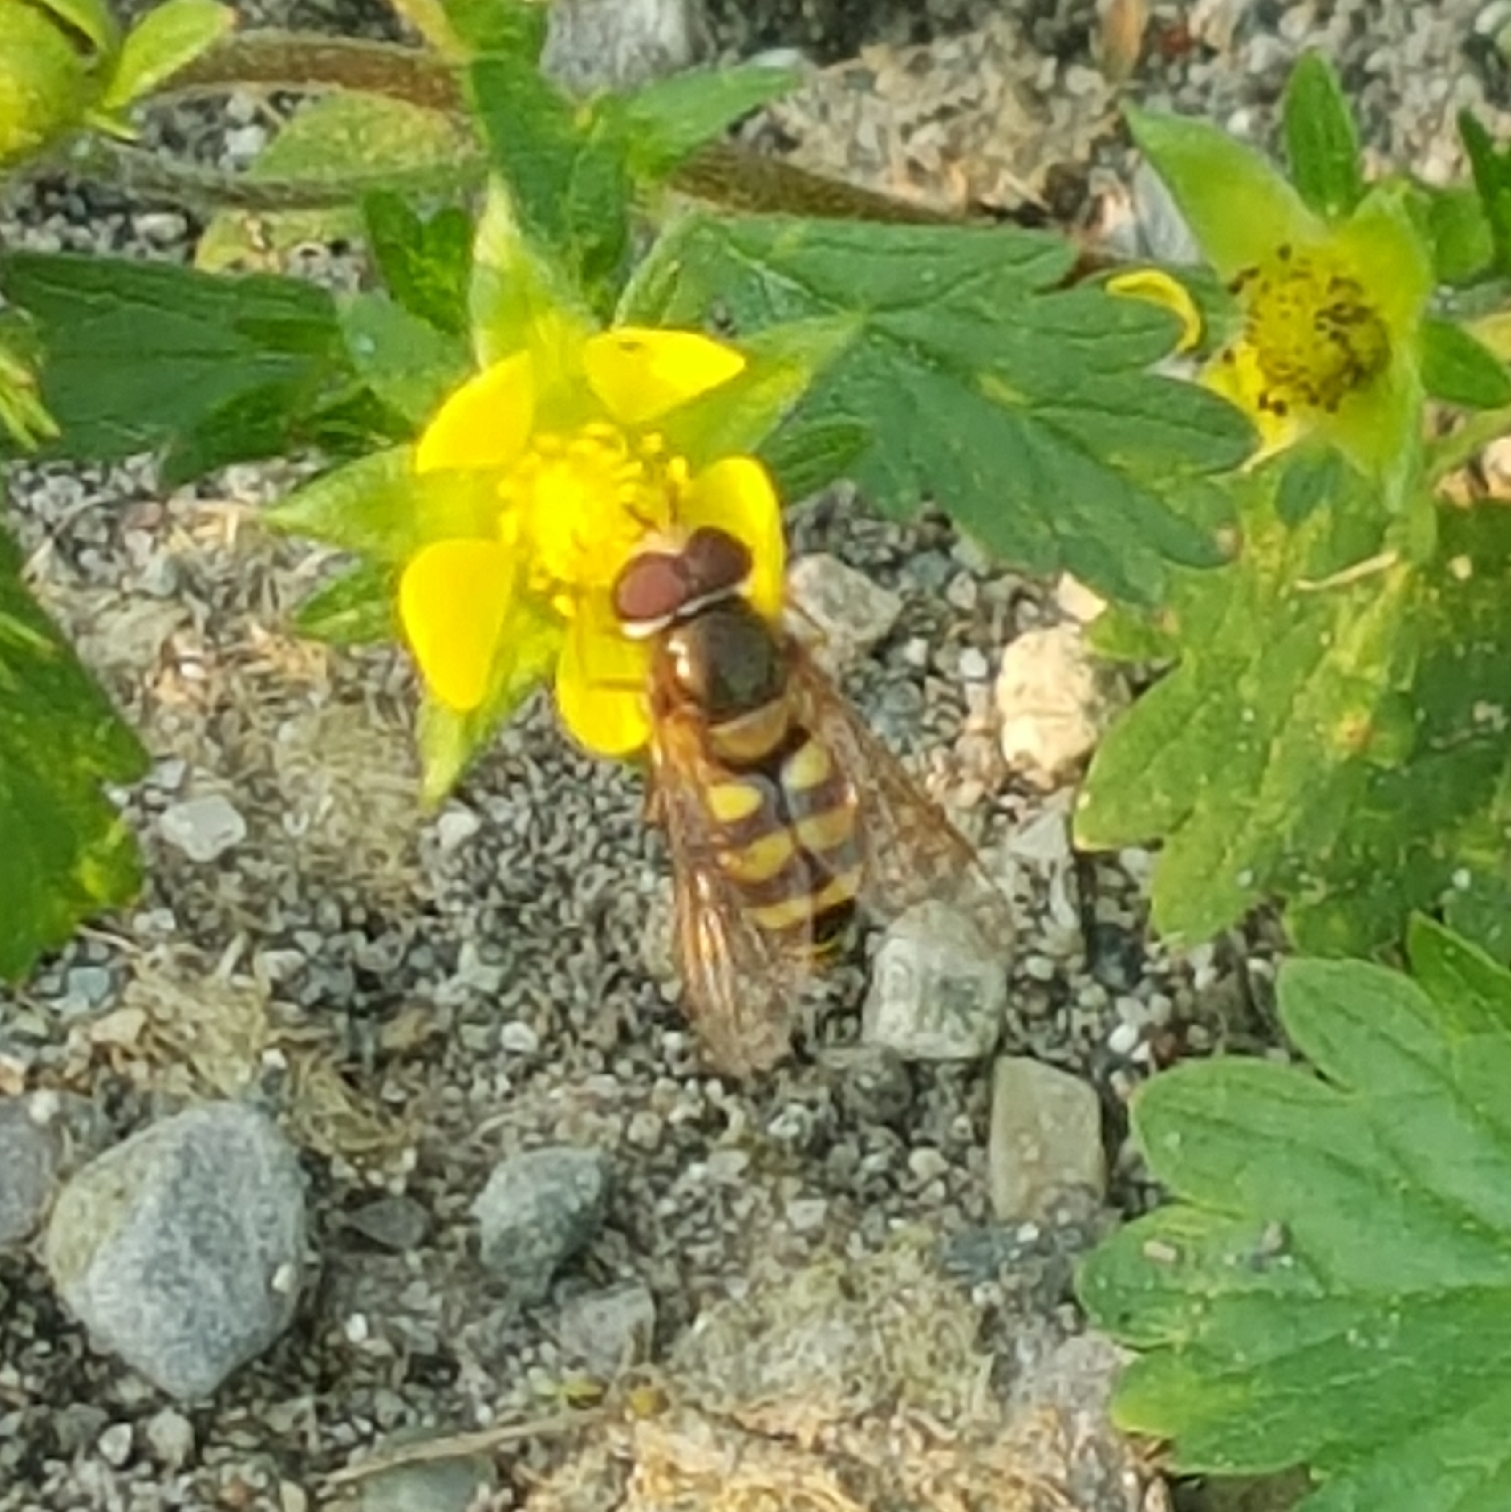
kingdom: Animalia
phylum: Arthropoda
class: Insecta
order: Diptera
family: Syrphidae
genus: Eupeodes
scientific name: Eupeodes fumipennis
